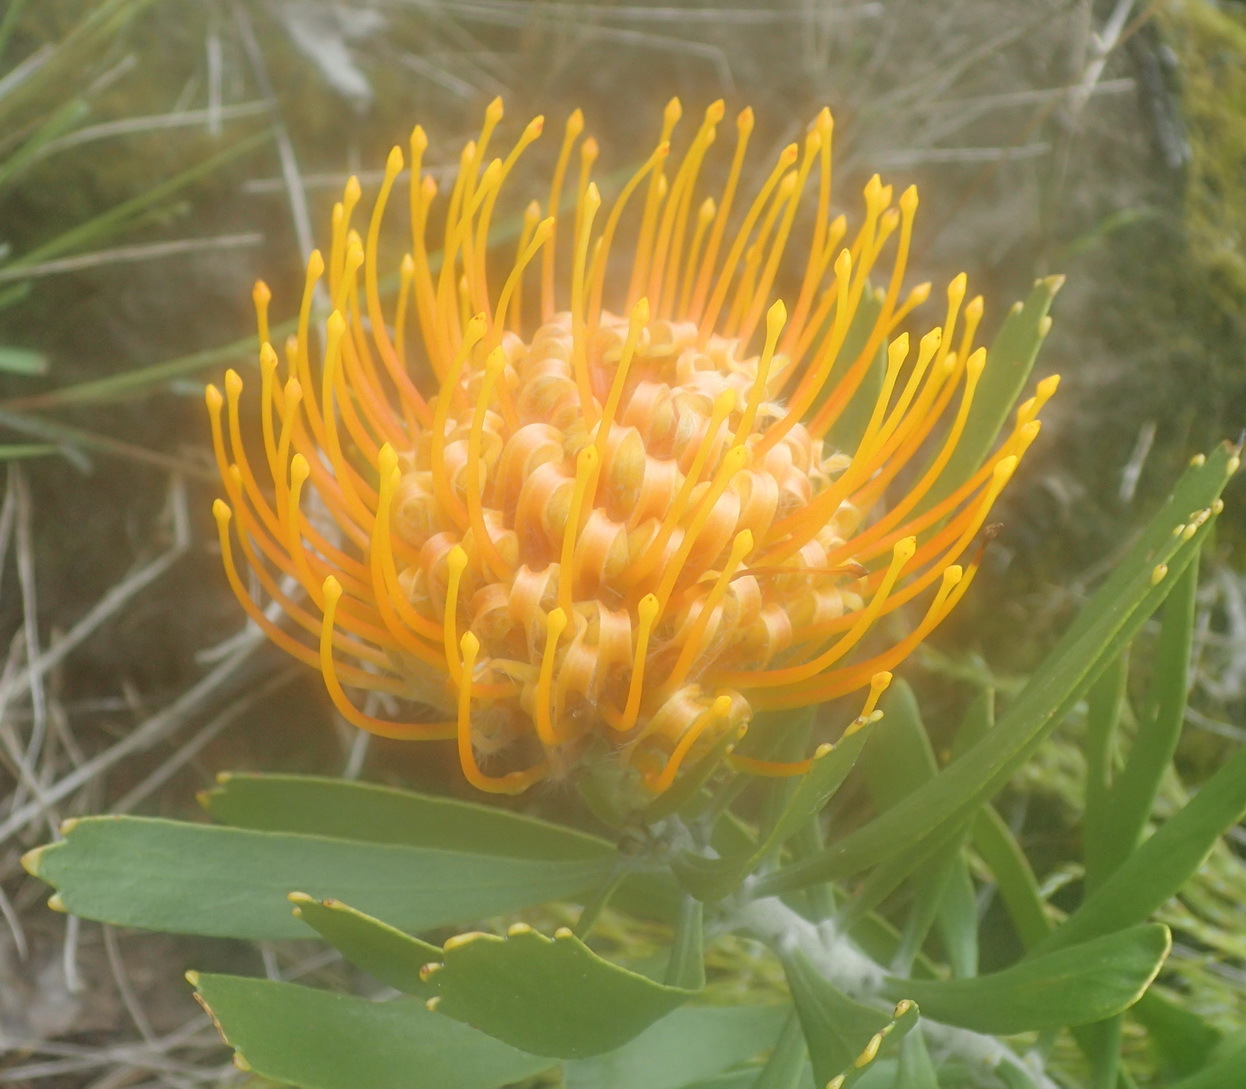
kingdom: Plantae
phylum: Tracheophyta
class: Magnoliopsida
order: Proteales
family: Proteaceae
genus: Leucospermum
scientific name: Leucospermum cuneiforme
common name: Common pincushion
